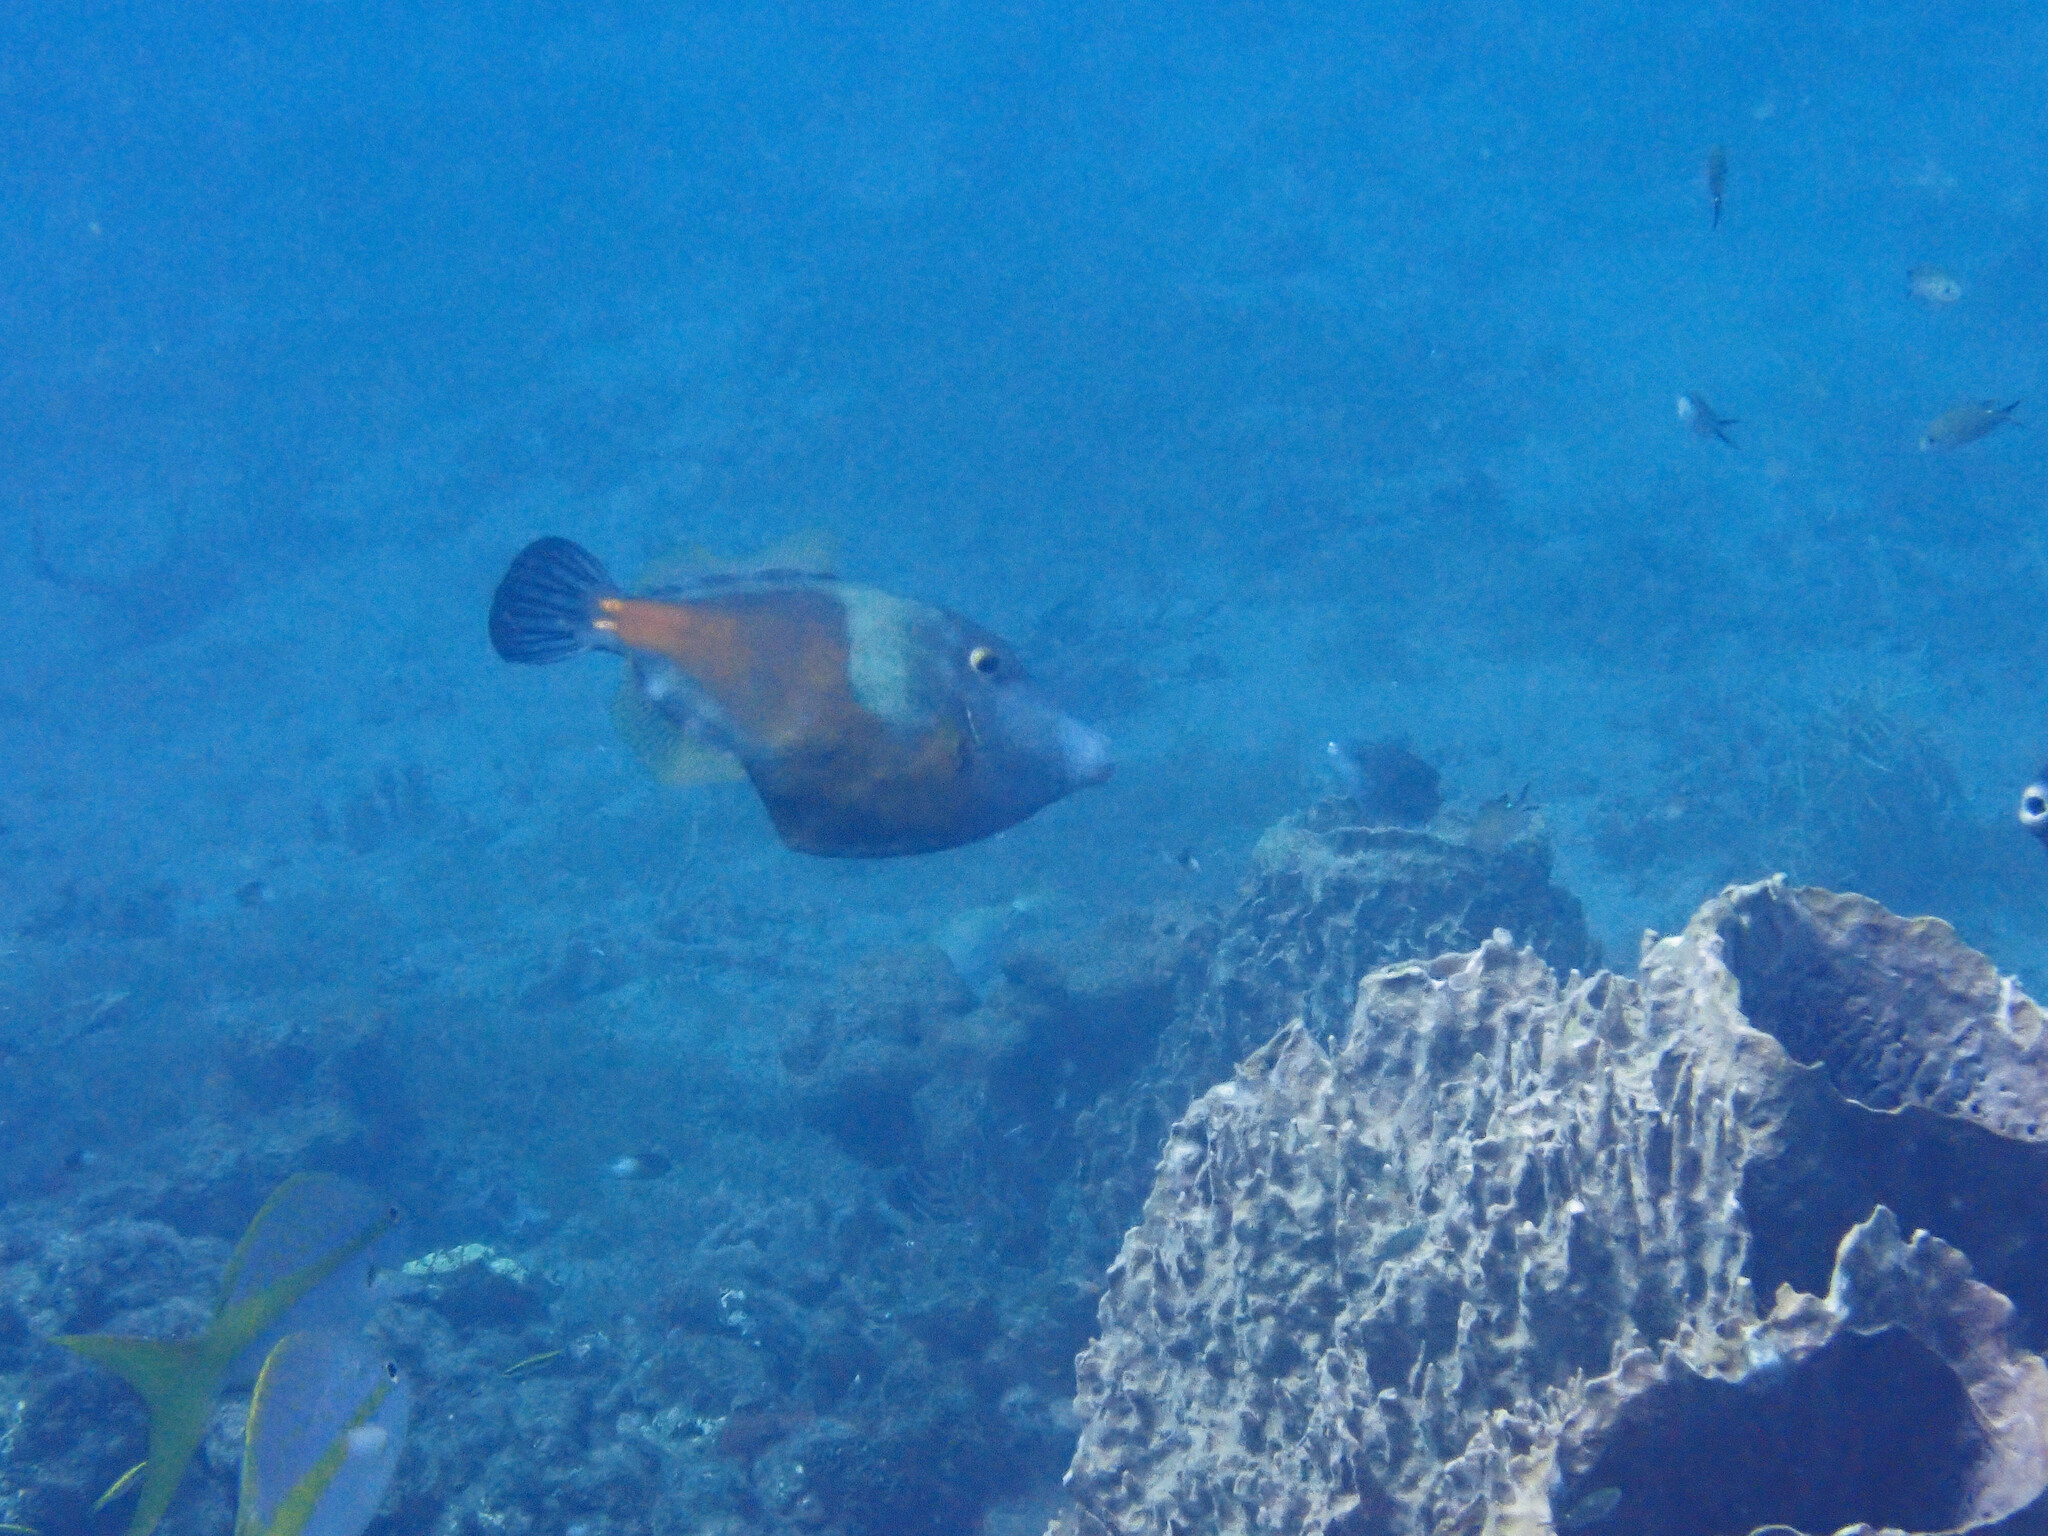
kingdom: Animalia
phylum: Chordata
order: Tetraodontiformes
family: Monacanthidae
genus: Cantherhines
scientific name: Cantherhines macrocerus
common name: Whitespotted filefish
